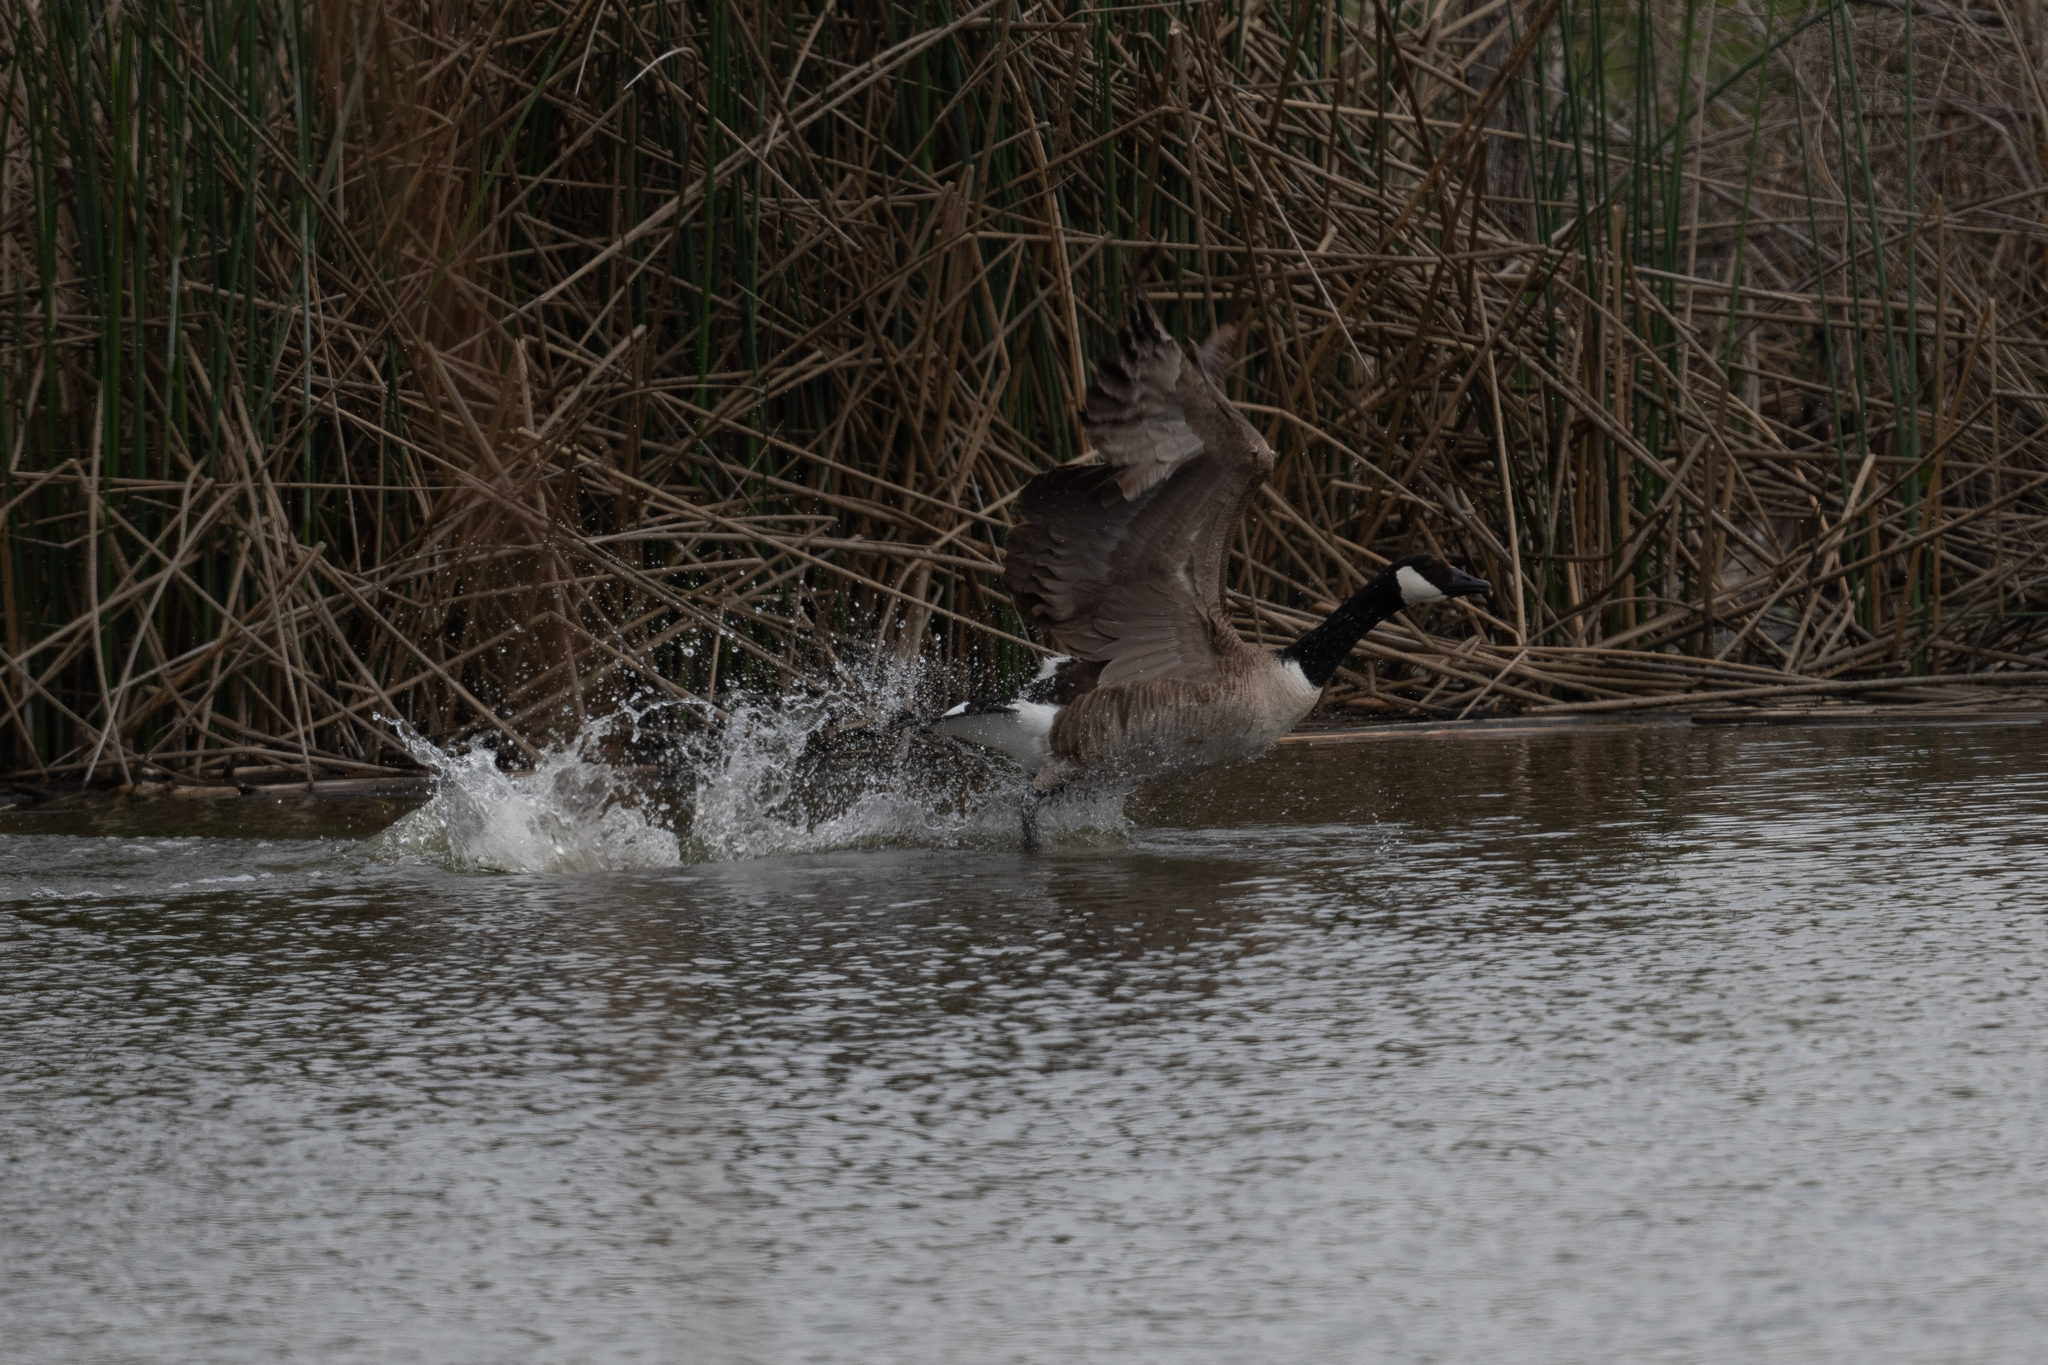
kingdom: Animalia
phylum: Chordata
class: Aves
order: Anseriformes
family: Anatidae
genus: Branta
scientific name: Branta canadensis
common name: Canada goose
